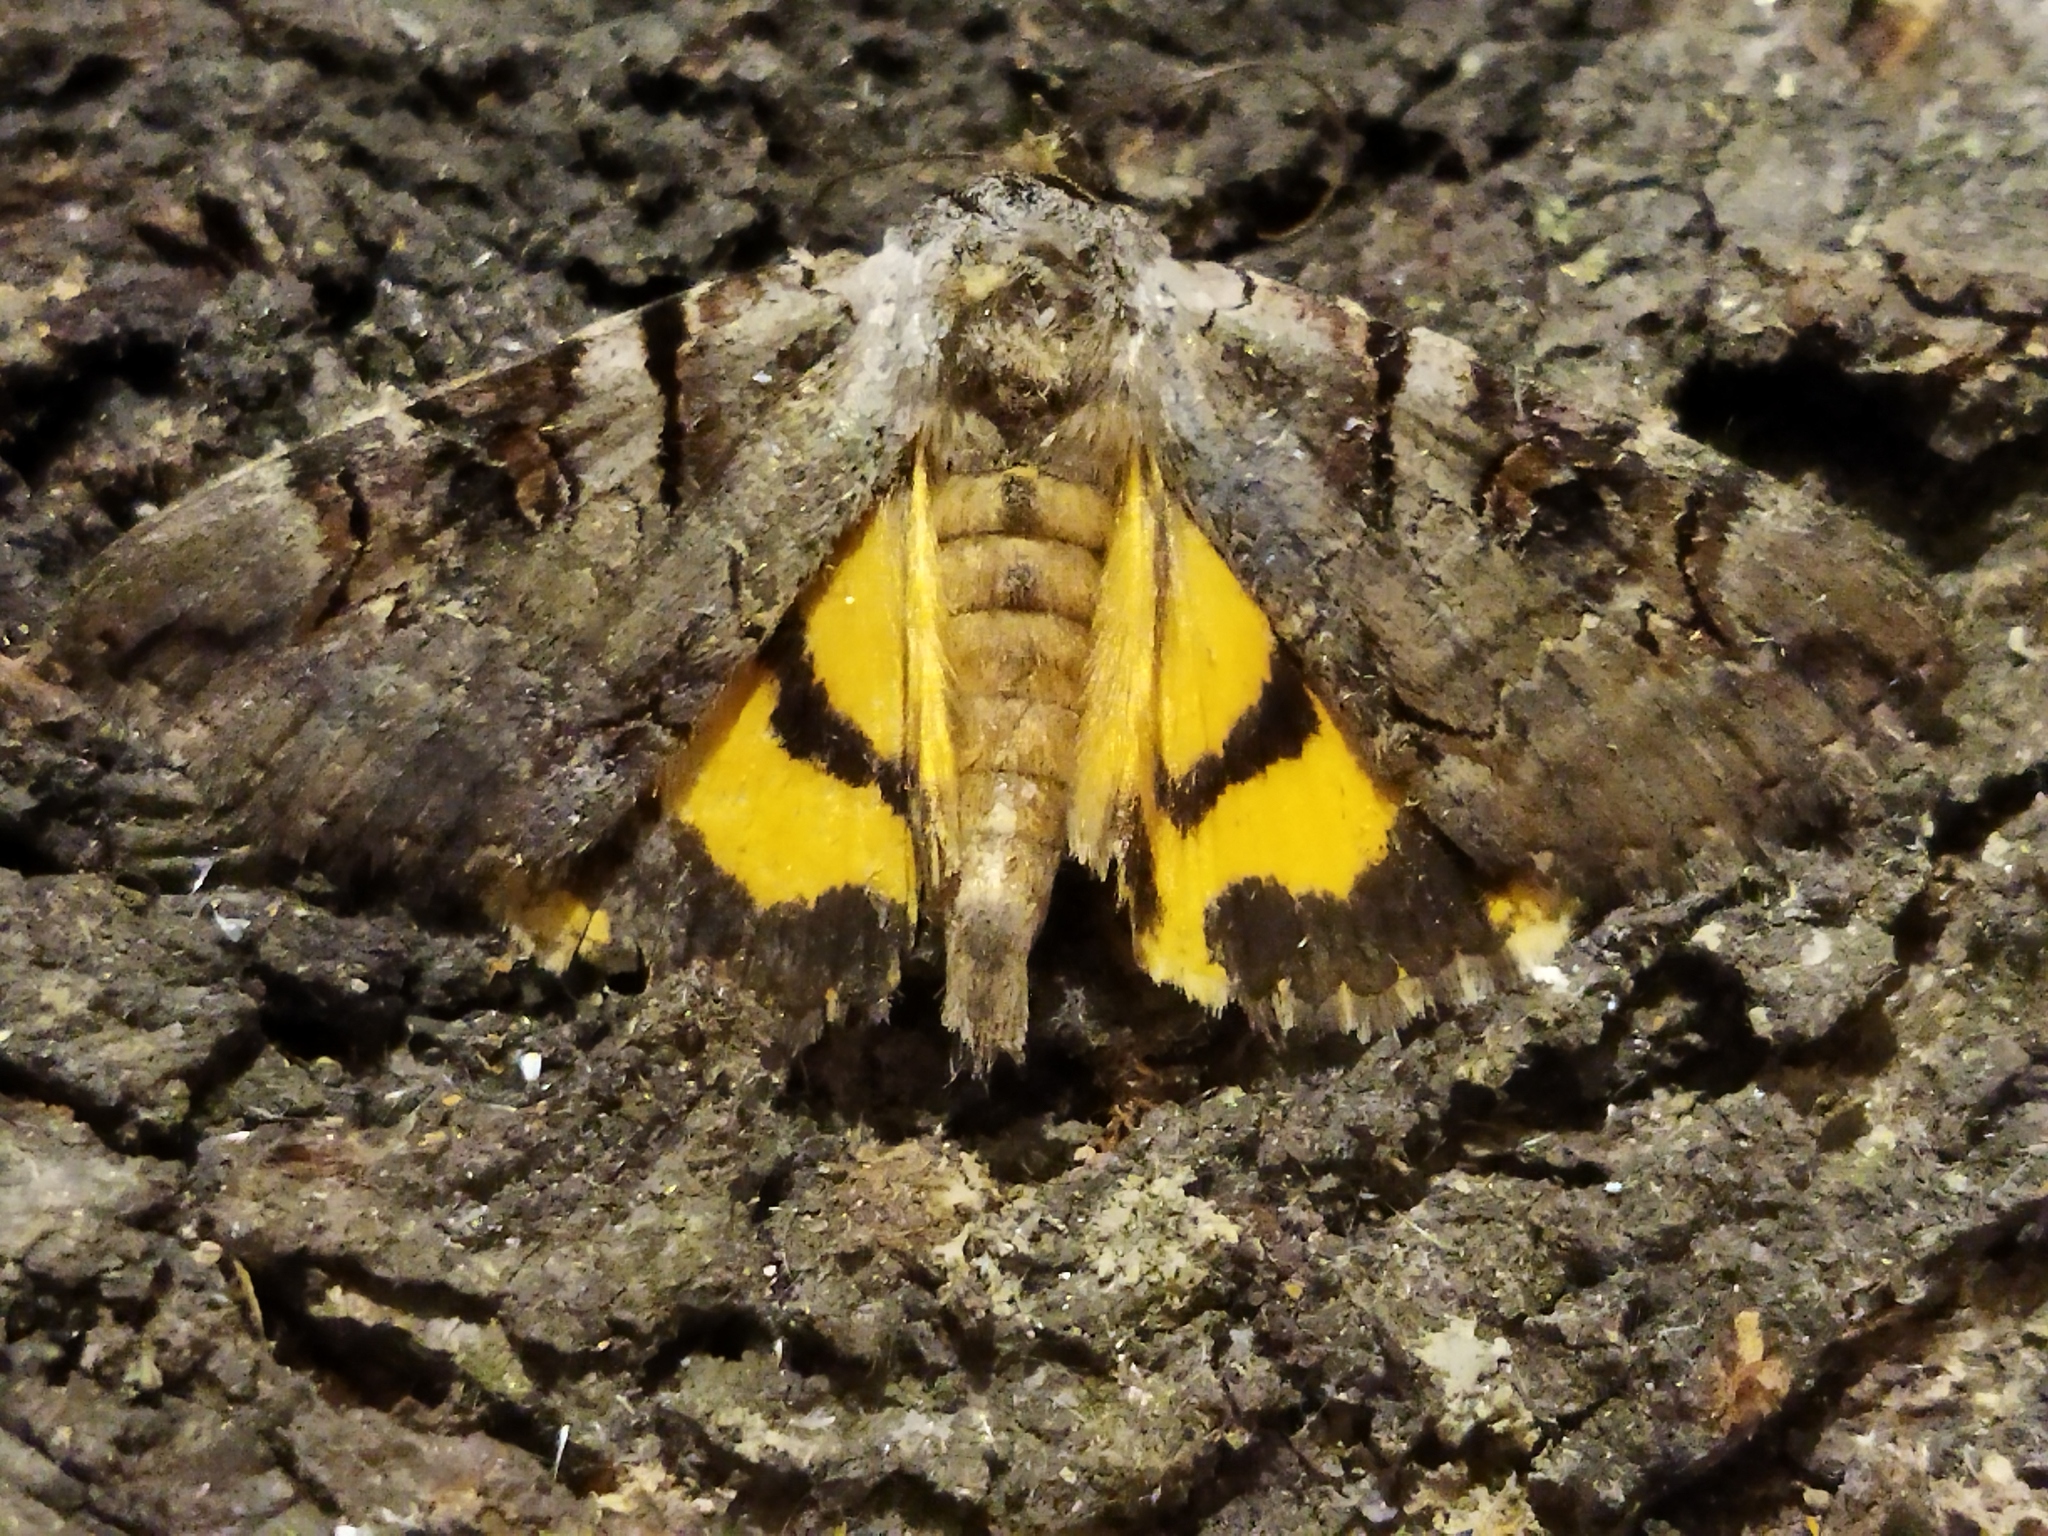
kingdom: Animalia
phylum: Arthropoda
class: Insecta
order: Lepidoptera
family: Erebidae
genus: Catocala
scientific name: Catocala hymenaea
